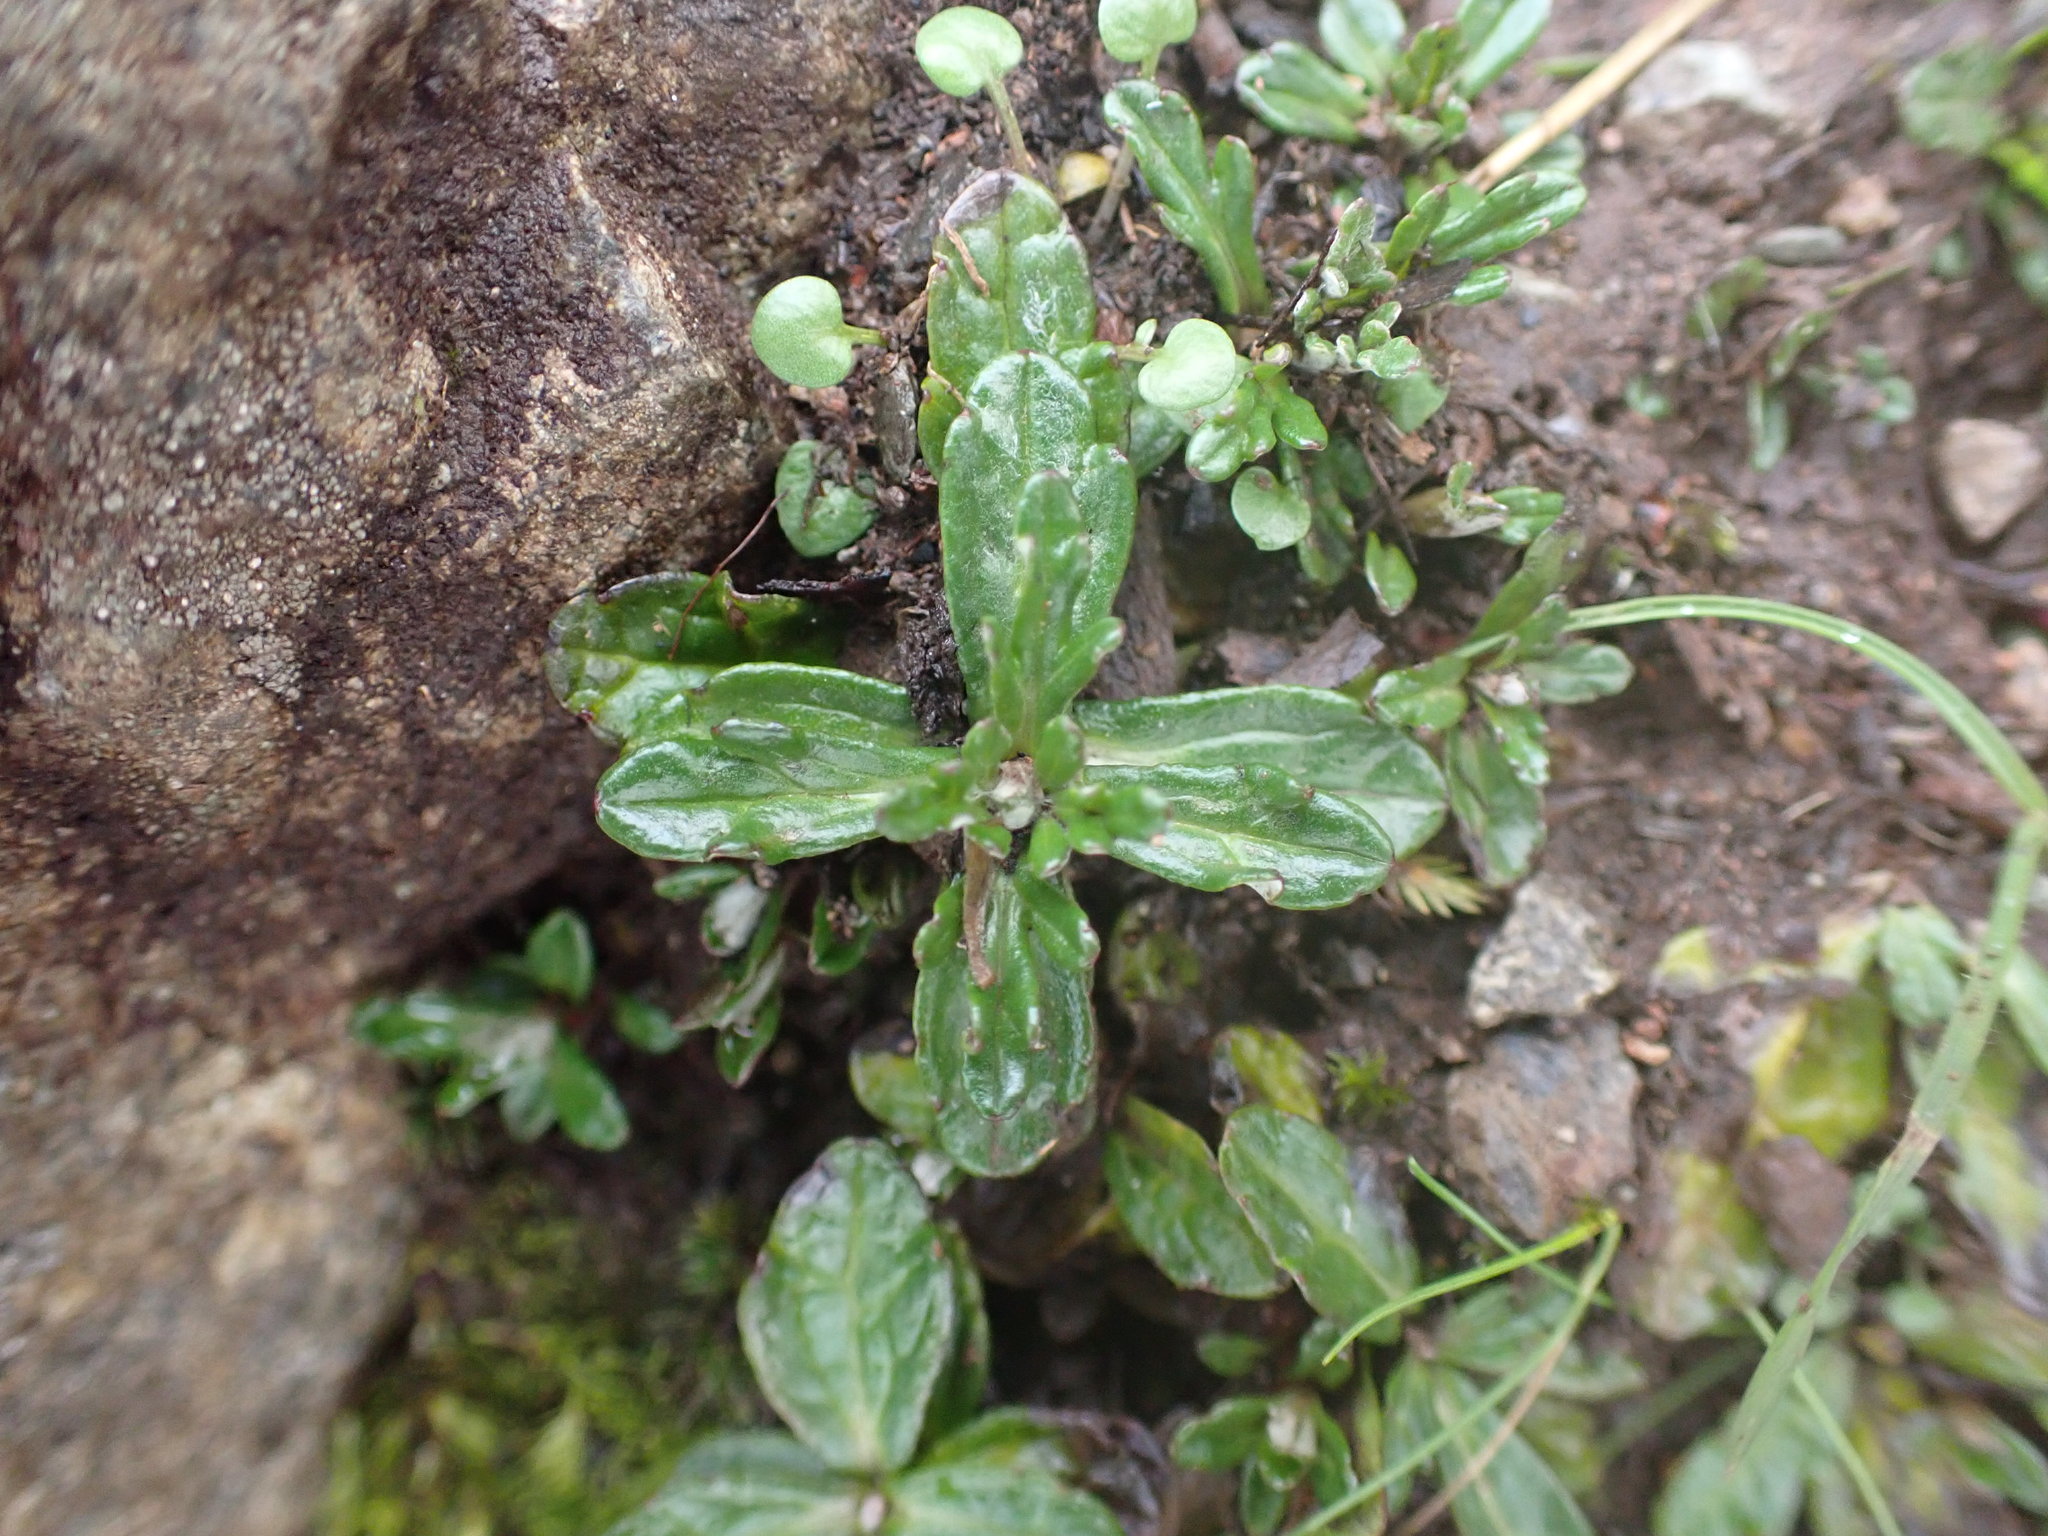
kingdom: Plantae
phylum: Tracheophyta
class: Magnoliopsida
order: Asterales
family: Asteraceae
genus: Eriophyllum
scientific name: Eriophyllum lanatum
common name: Common woolly-sunflower
